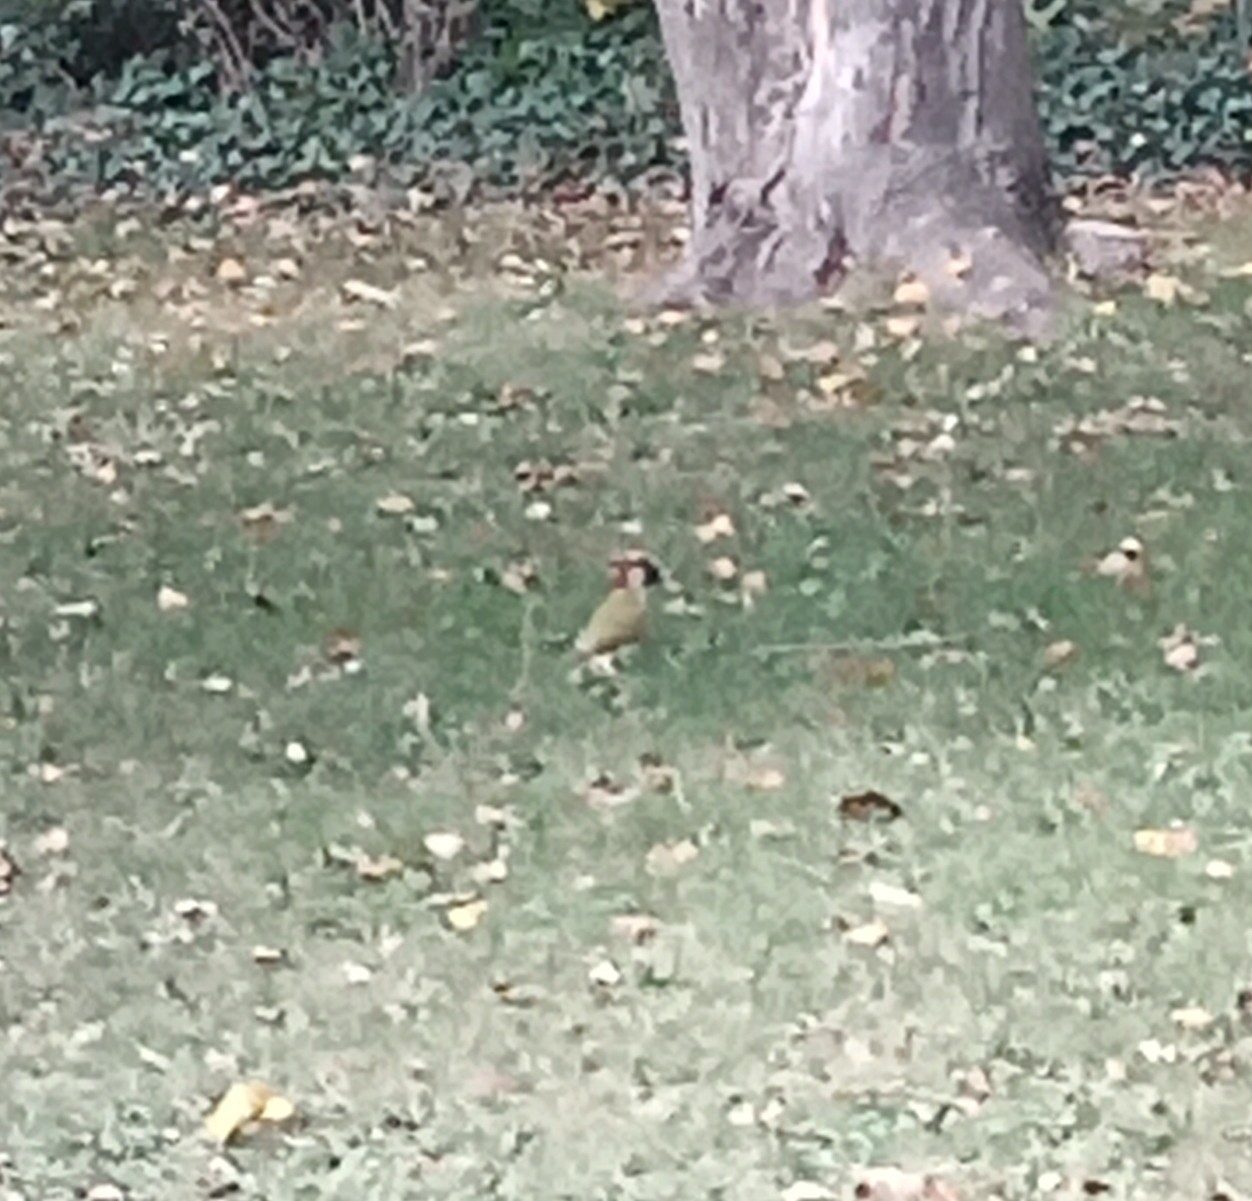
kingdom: Animalia
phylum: Chordata
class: Aves
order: Piciformes
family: Picidae
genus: Picus
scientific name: Picus viridis
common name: European green woodpecker
